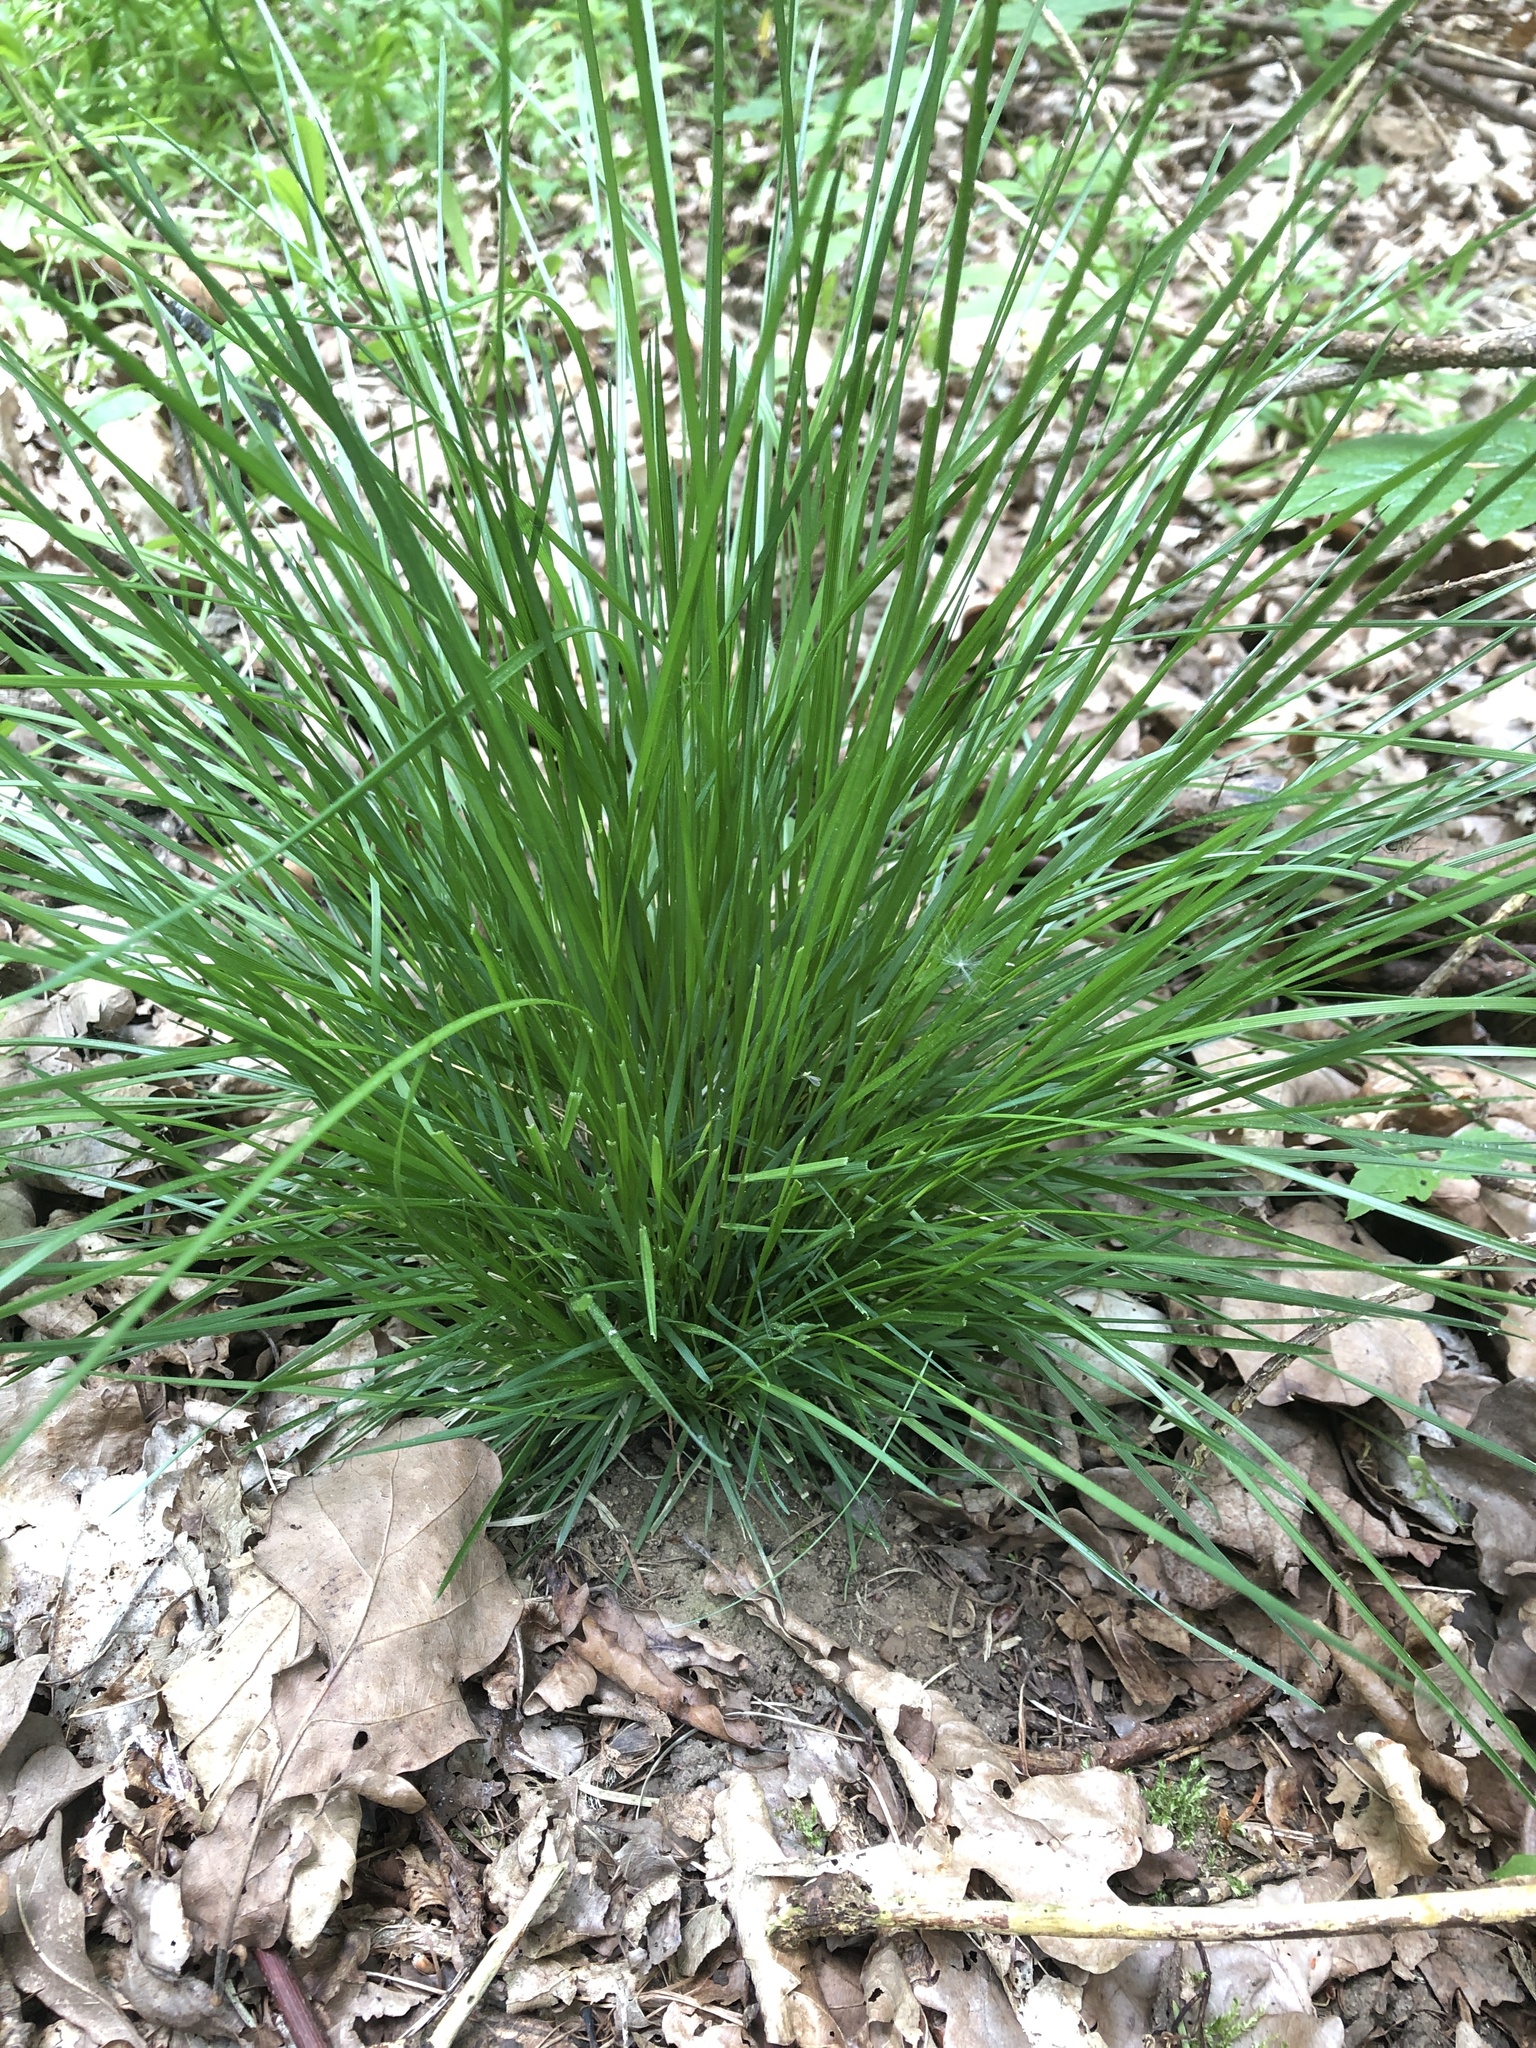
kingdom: Plantae
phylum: Tracheophyta
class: Liliopsida
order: Poales
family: Poaceae
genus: Deschampsia
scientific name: Deschampsia cespitosa
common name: Tufted hair-grass
